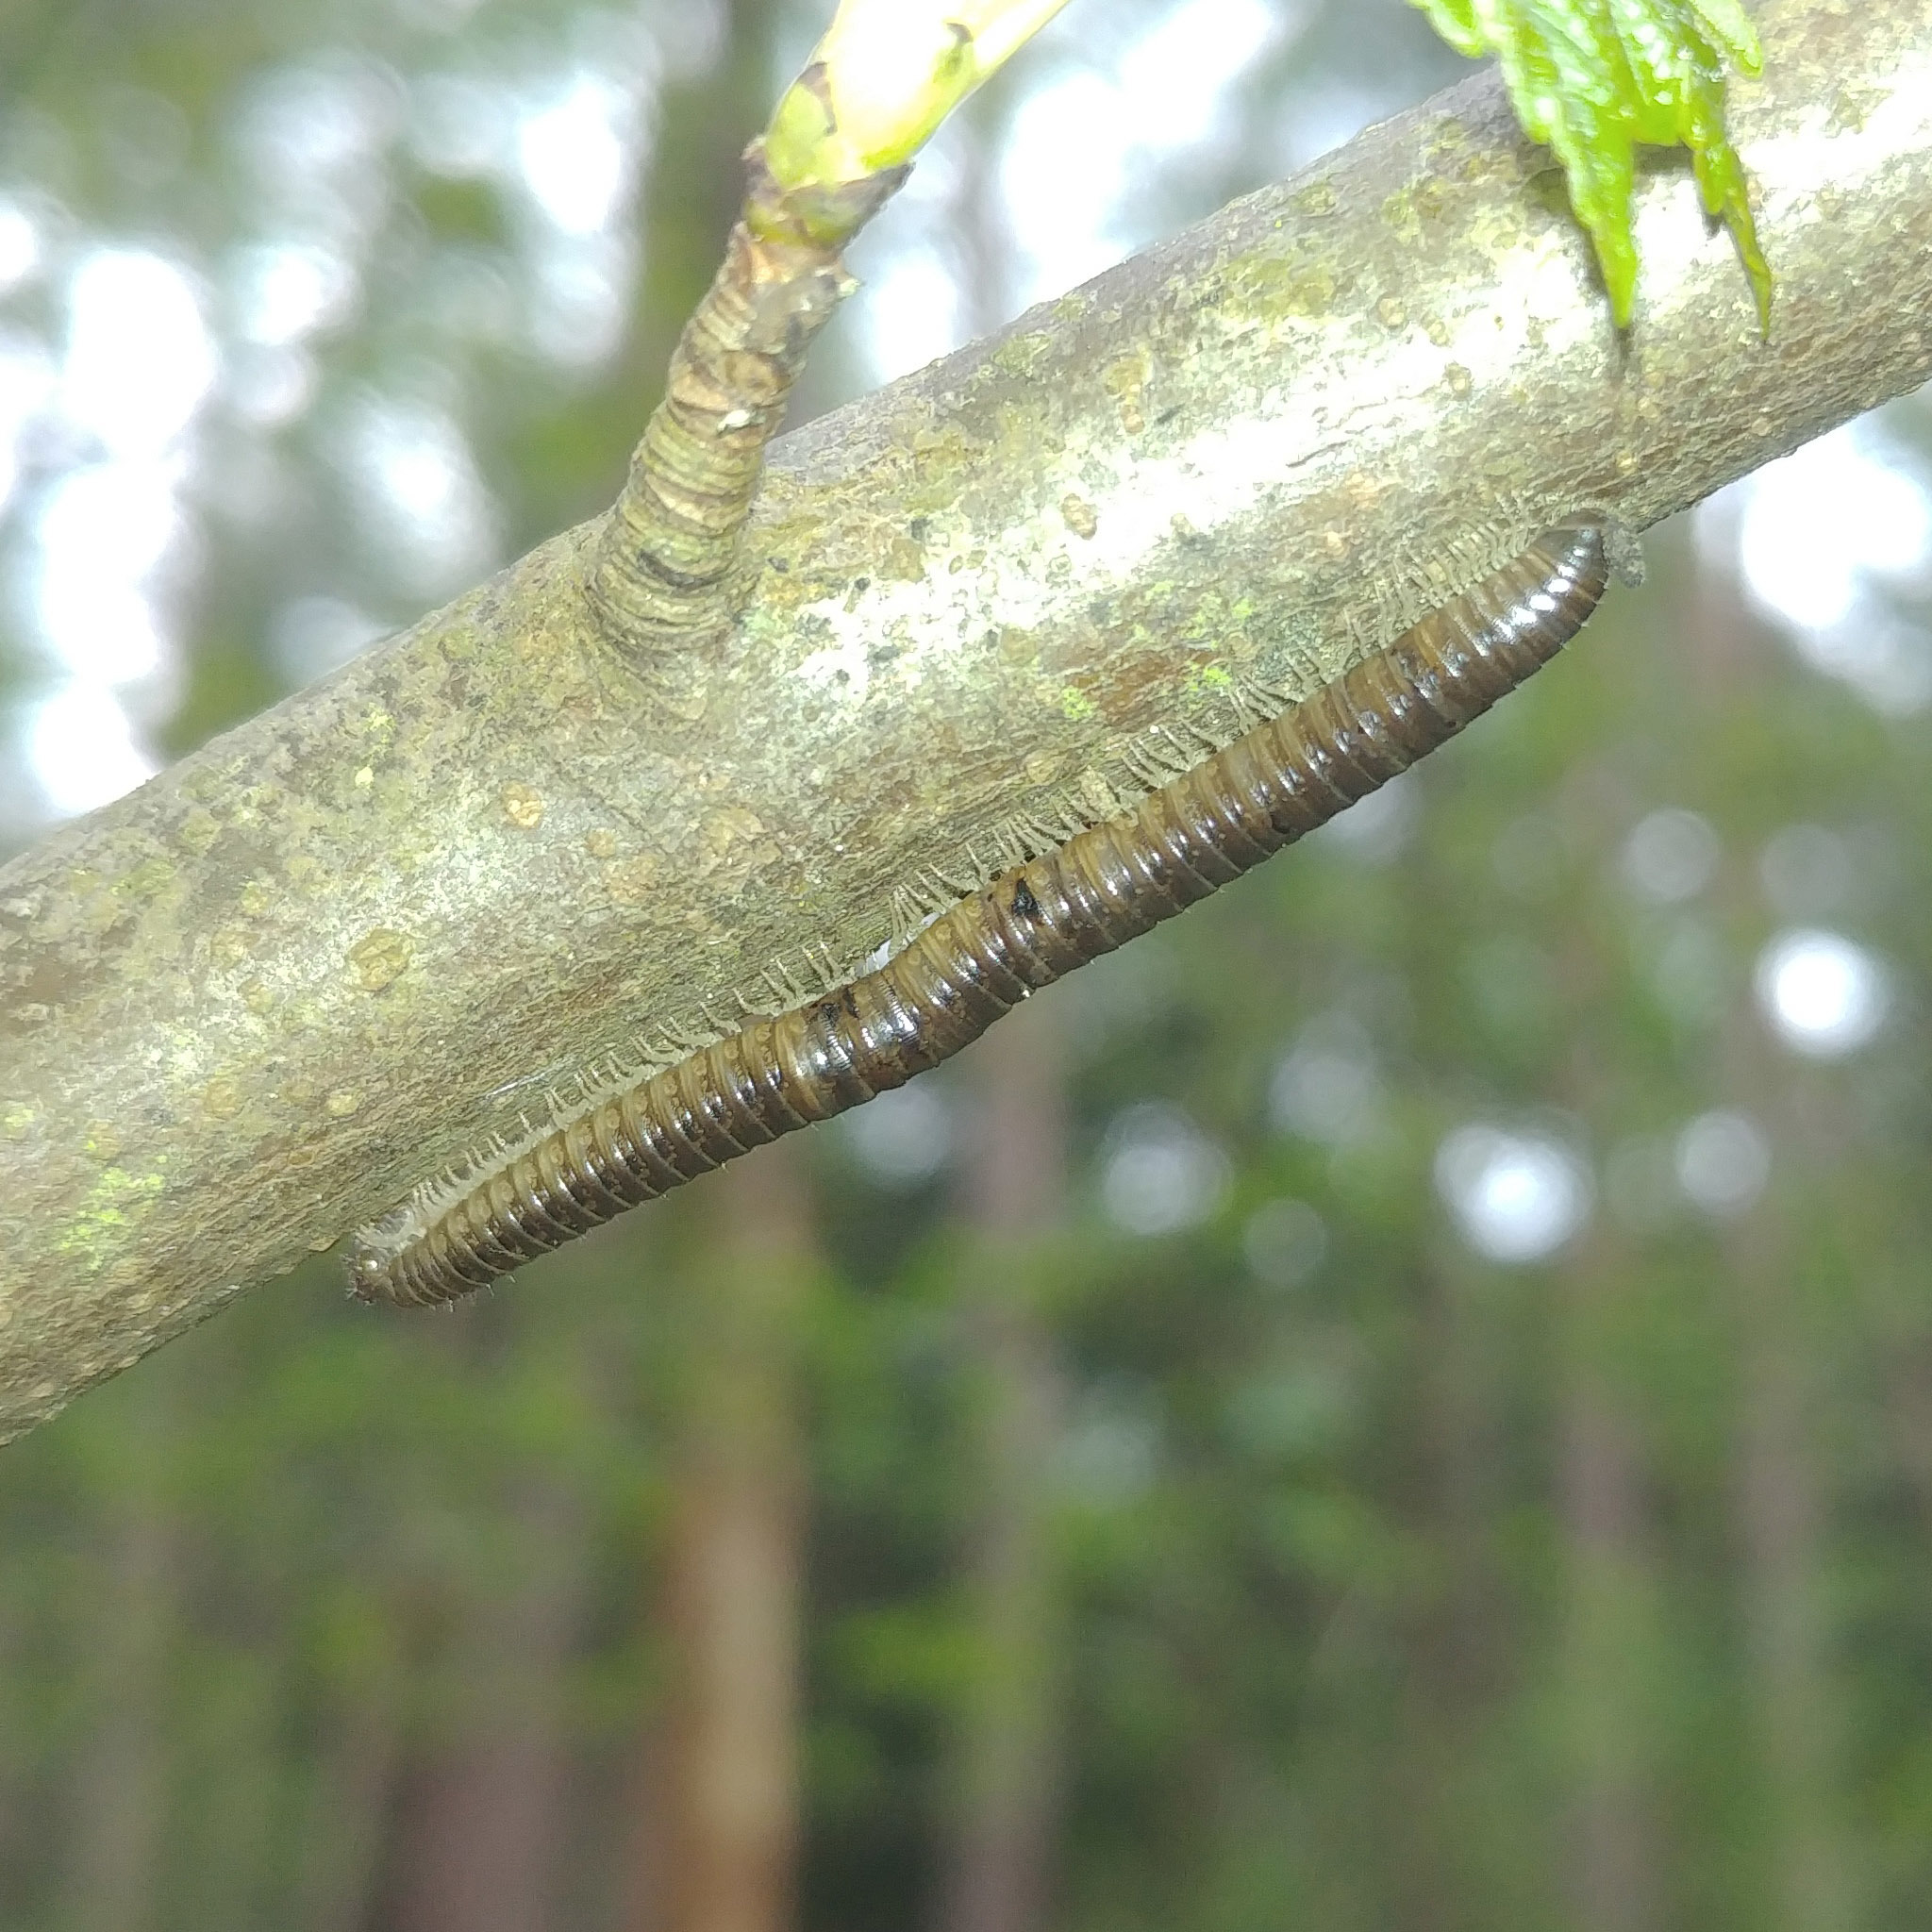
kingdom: Animalia
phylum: Arthropoda
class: Diplopoda
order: Julida
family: Julidae
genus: Tachypodoiulus
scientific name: Tachypodoiulus niger
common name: White-legged snake millipede
